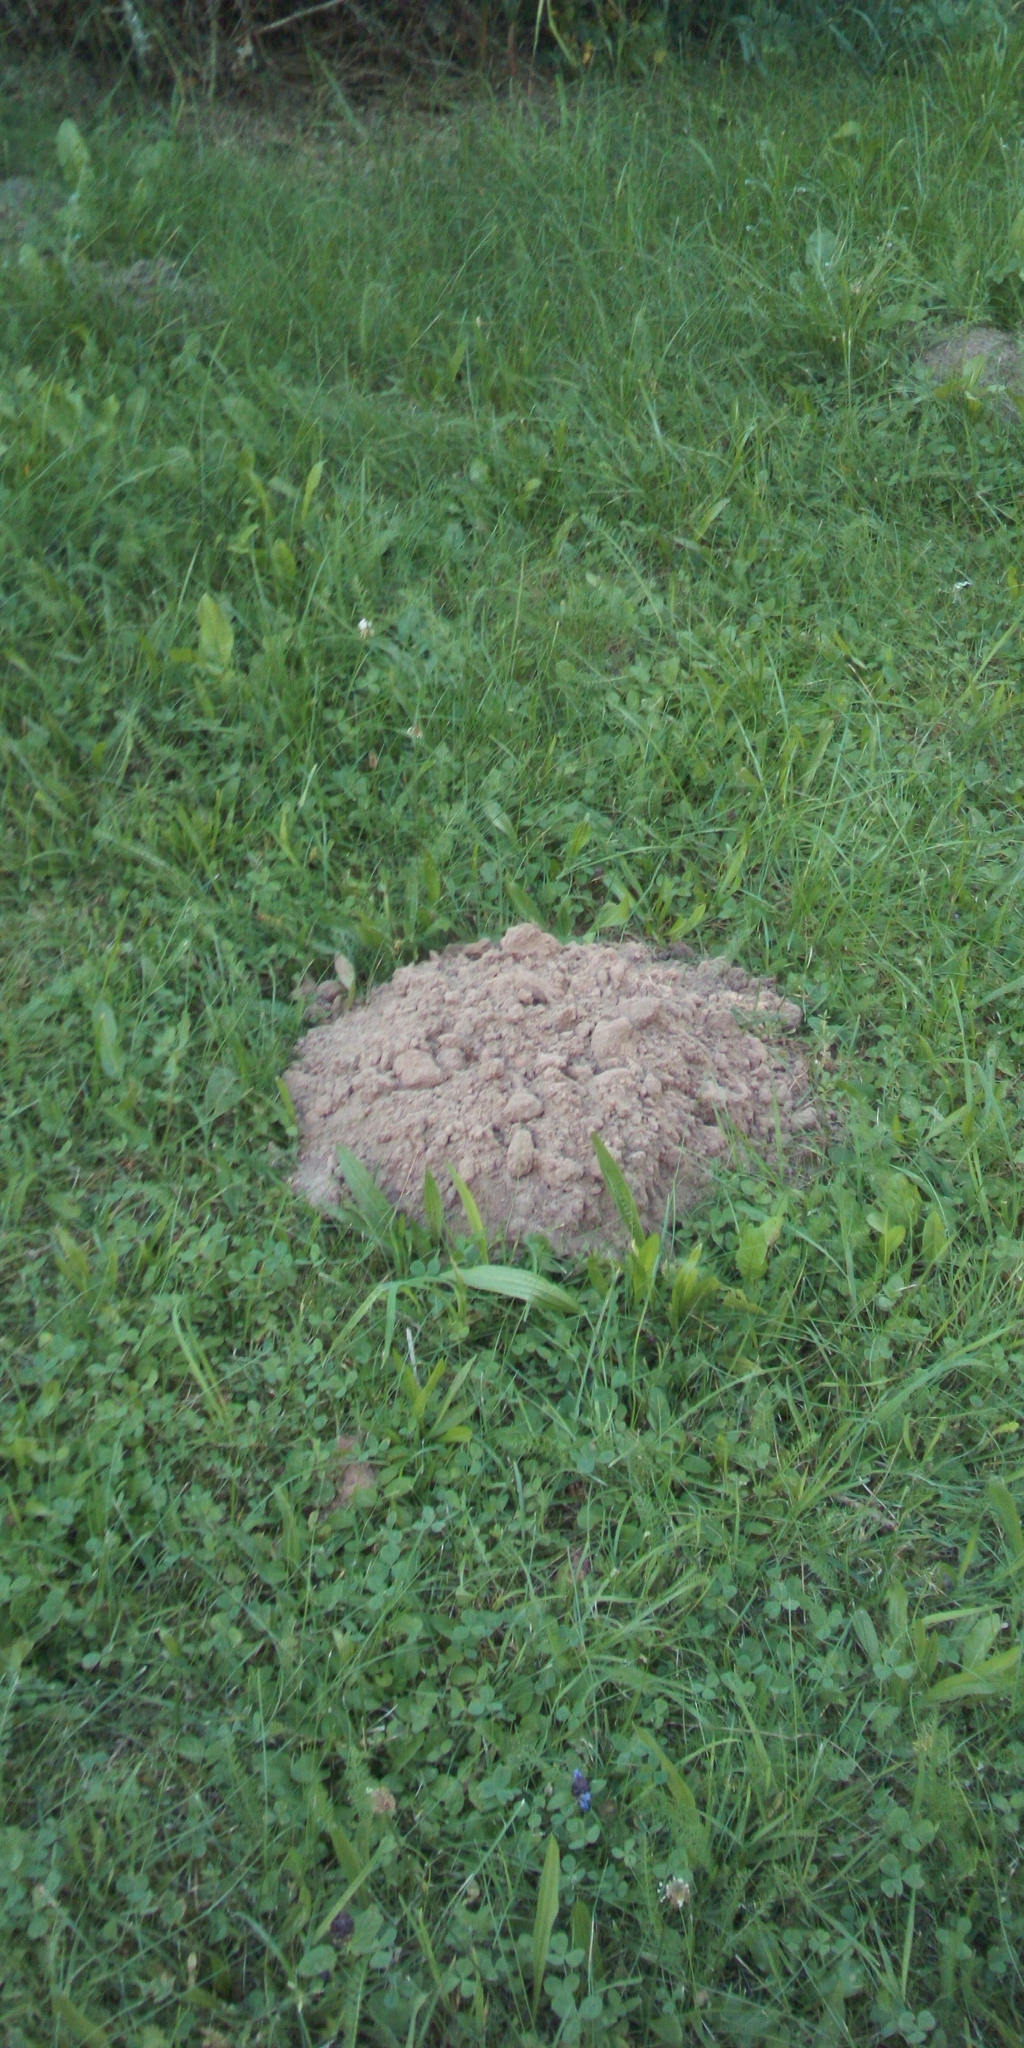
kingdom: Animalia
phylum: Chordata
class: Mammalia
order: Soricomorpha
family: Talpidae
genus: Talpa
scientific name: Talpa europaea
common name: European mole
